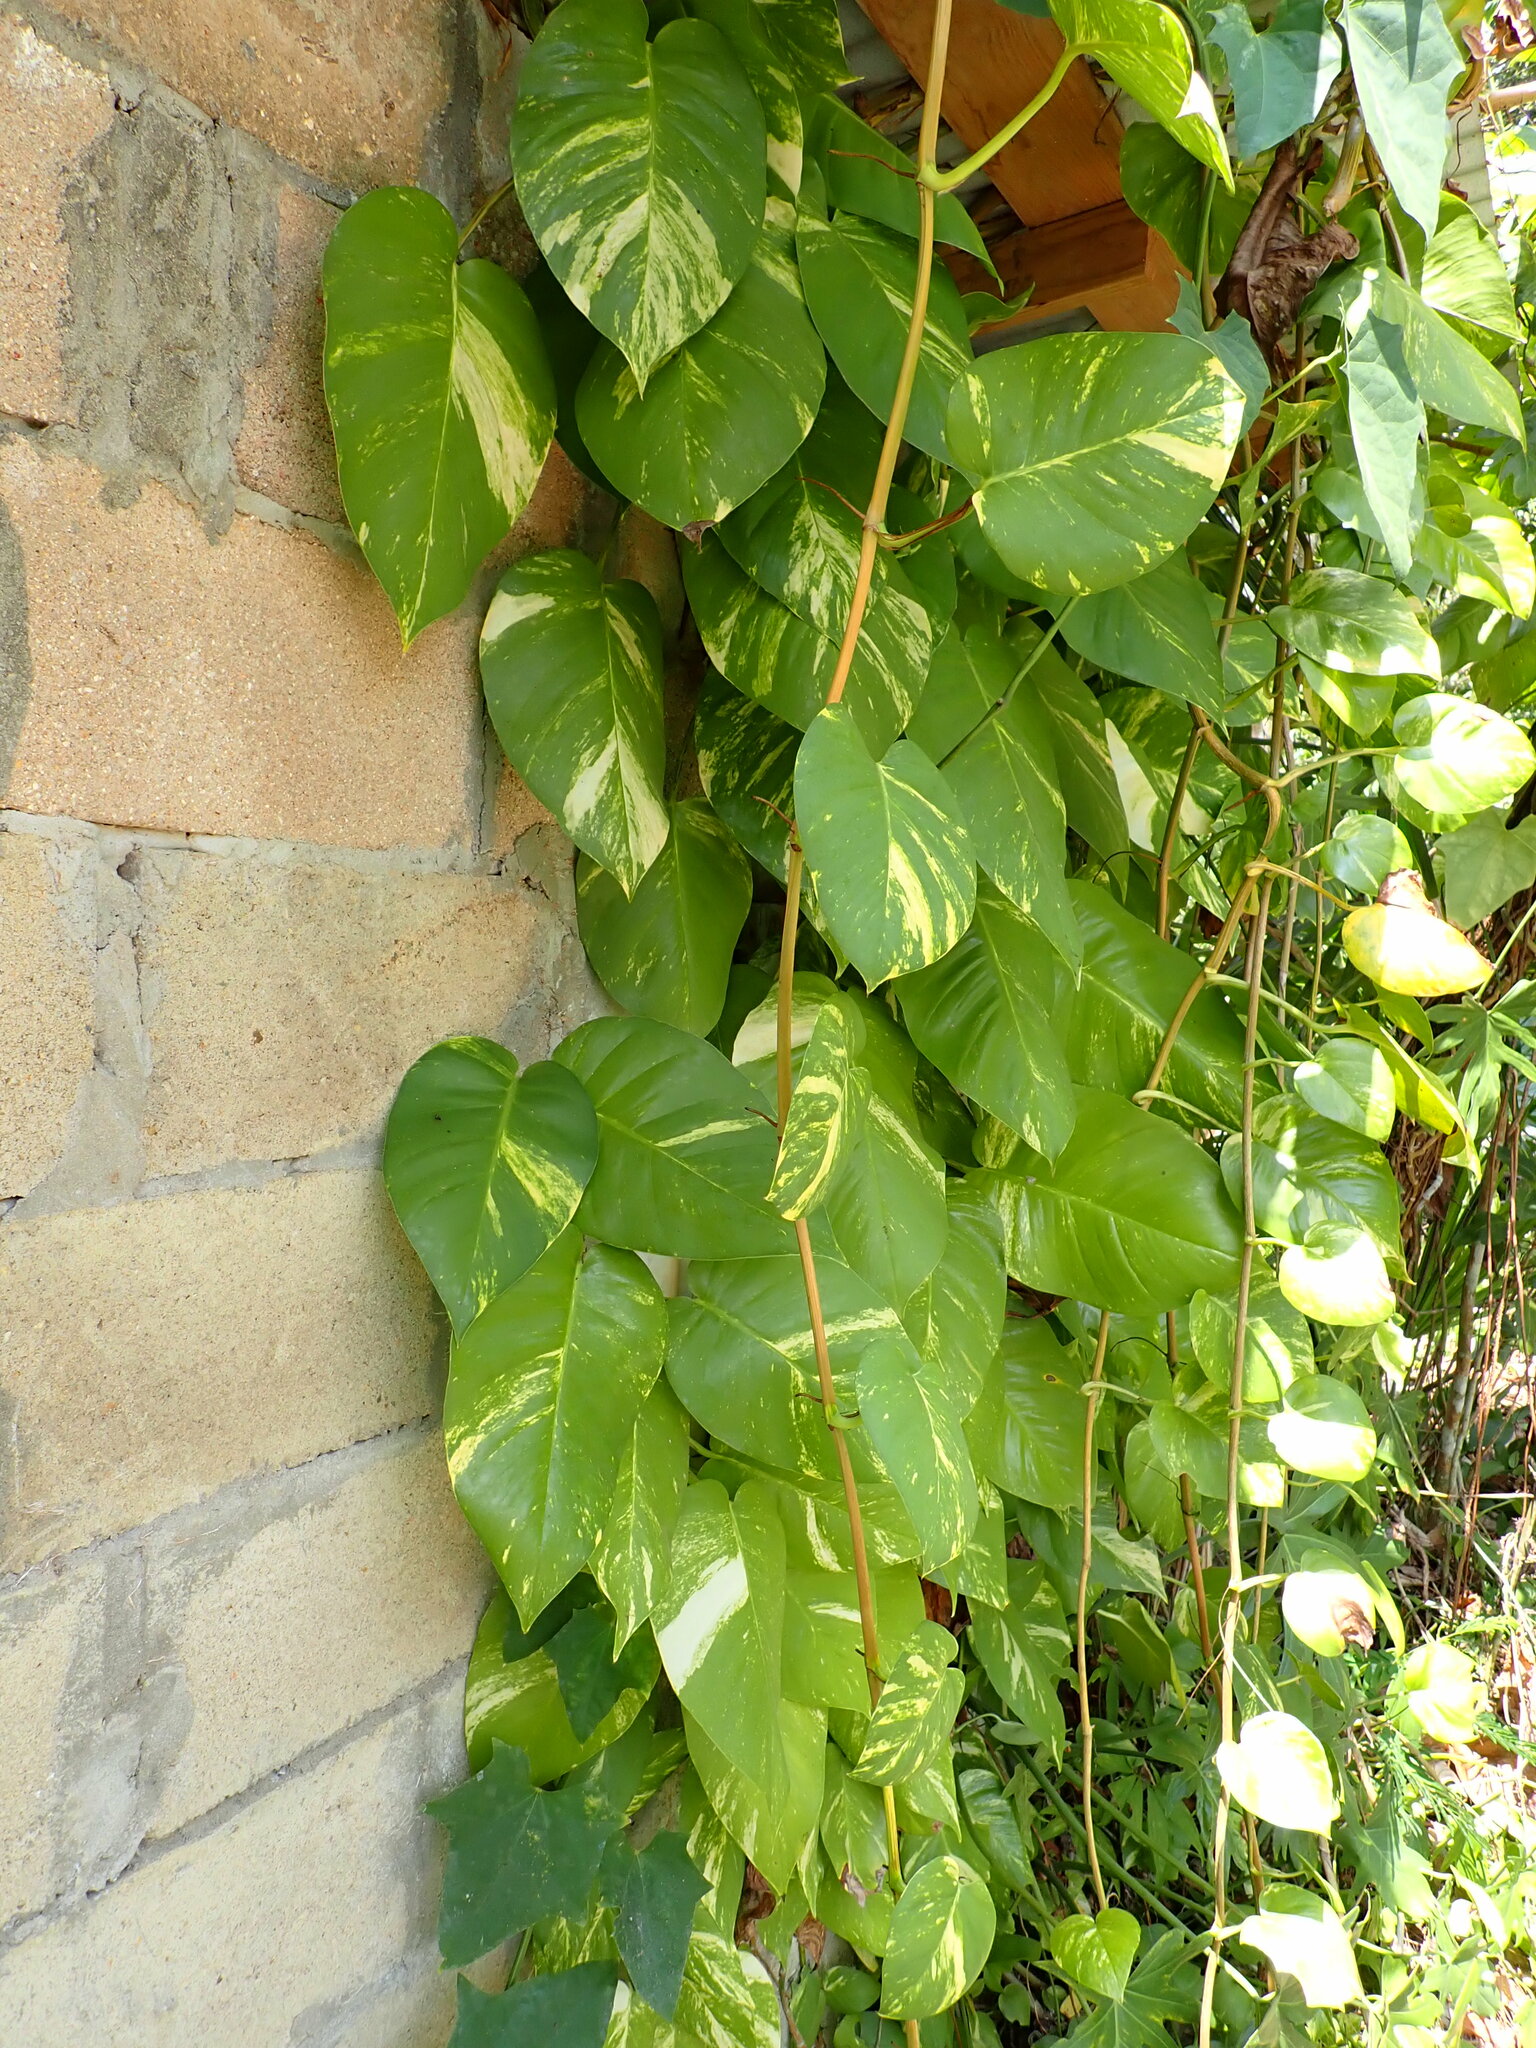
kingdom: Plantae
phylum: Tracheophyta
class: Liliopsida
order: Alismatales
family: Araceae
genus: Epipremnum
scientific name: Epipremnum aureum
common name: Golden hunter's-robe
